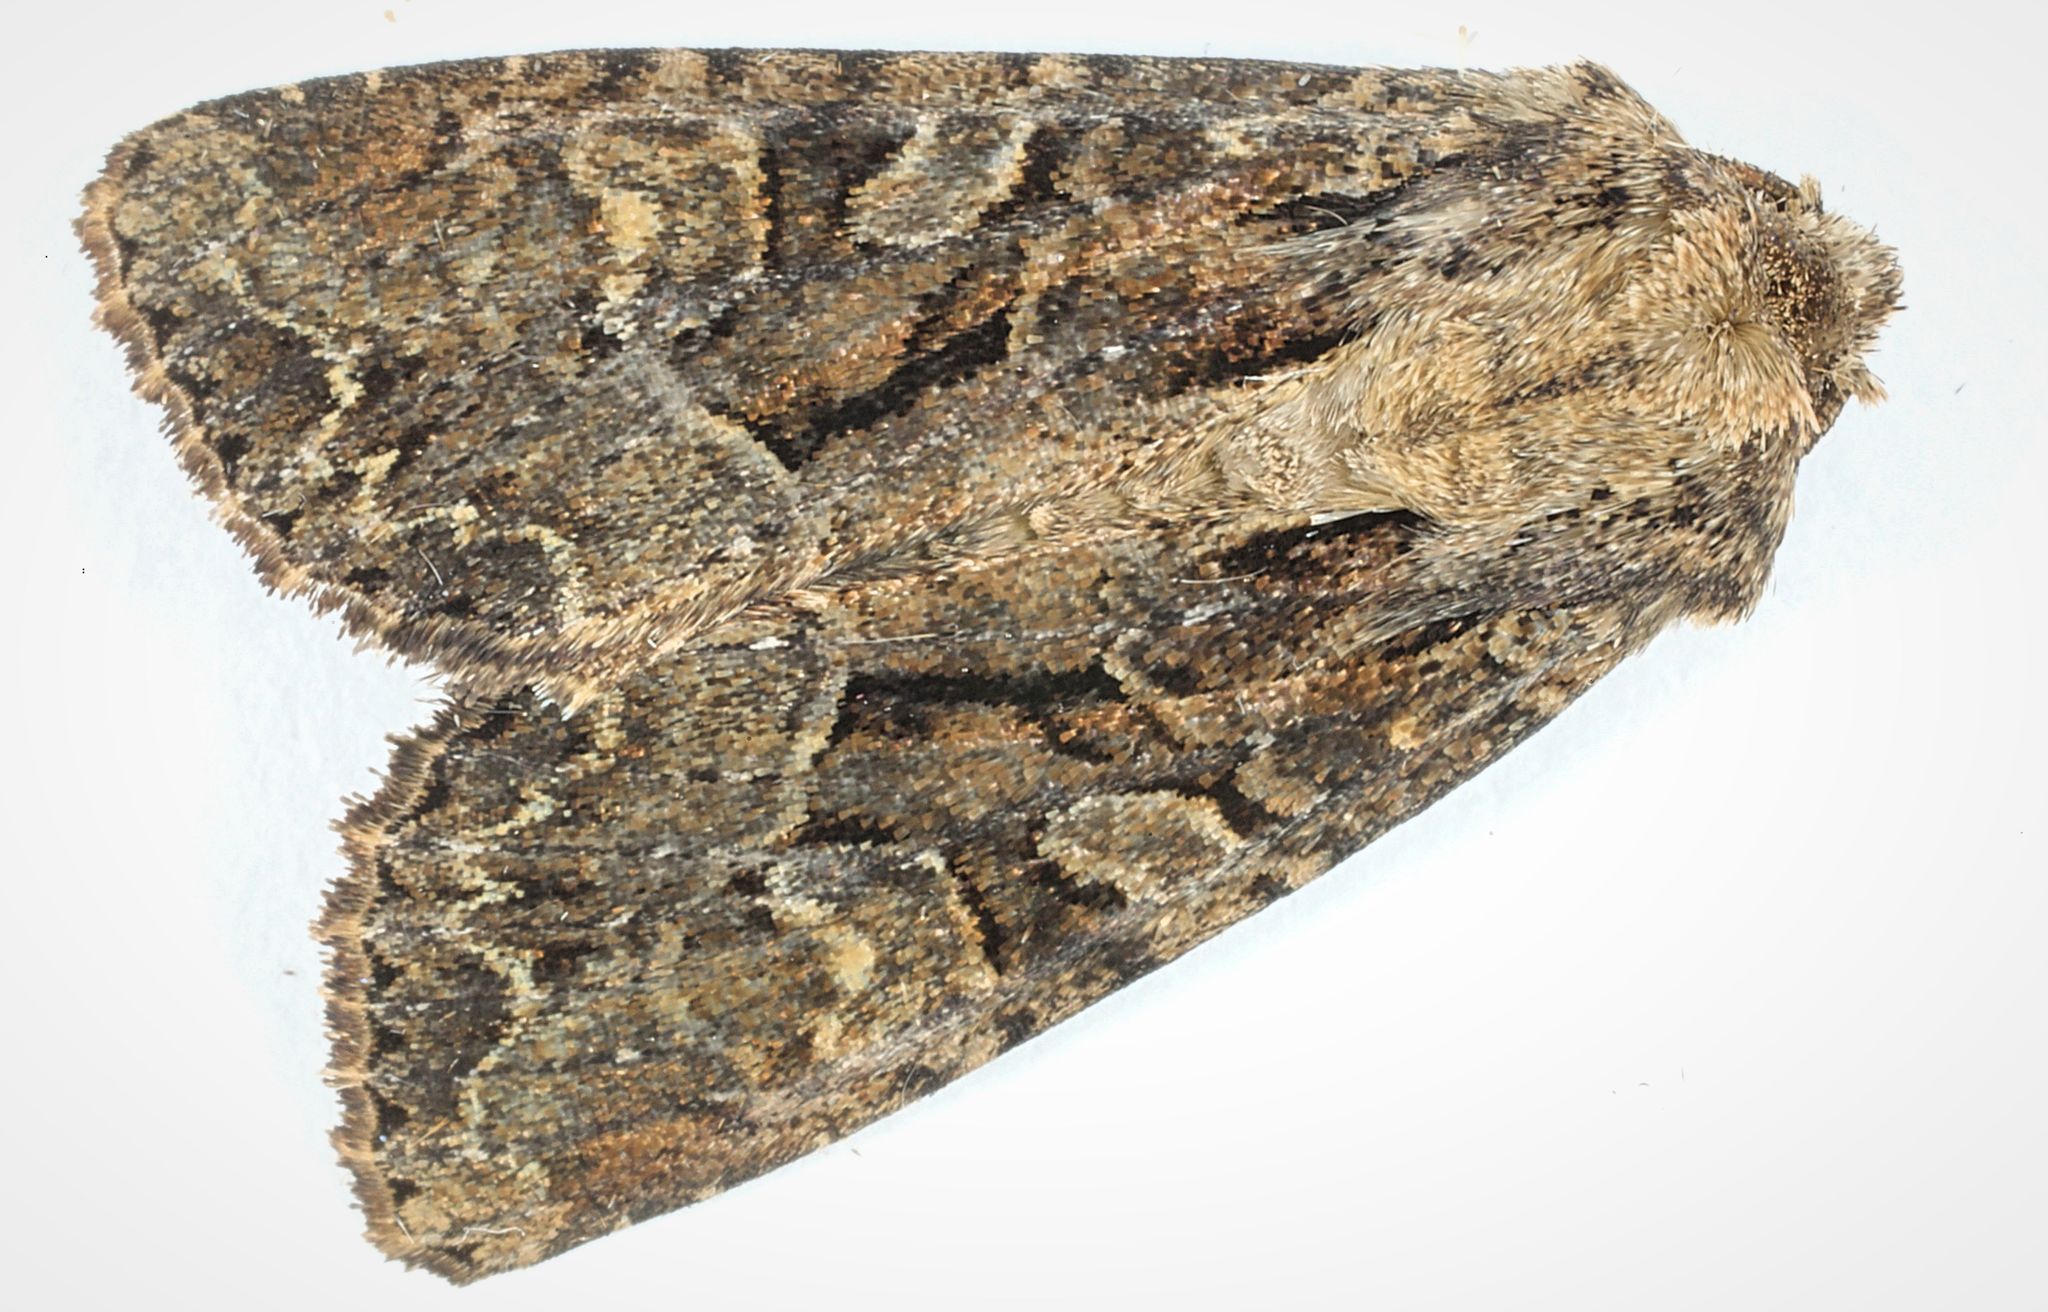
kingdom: Animalia
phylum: Arthropoda
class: Insecta
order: Lepidoptera
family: Noctuidae
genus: Apamea
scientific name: Apamea remissa
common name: Dusky brocade
